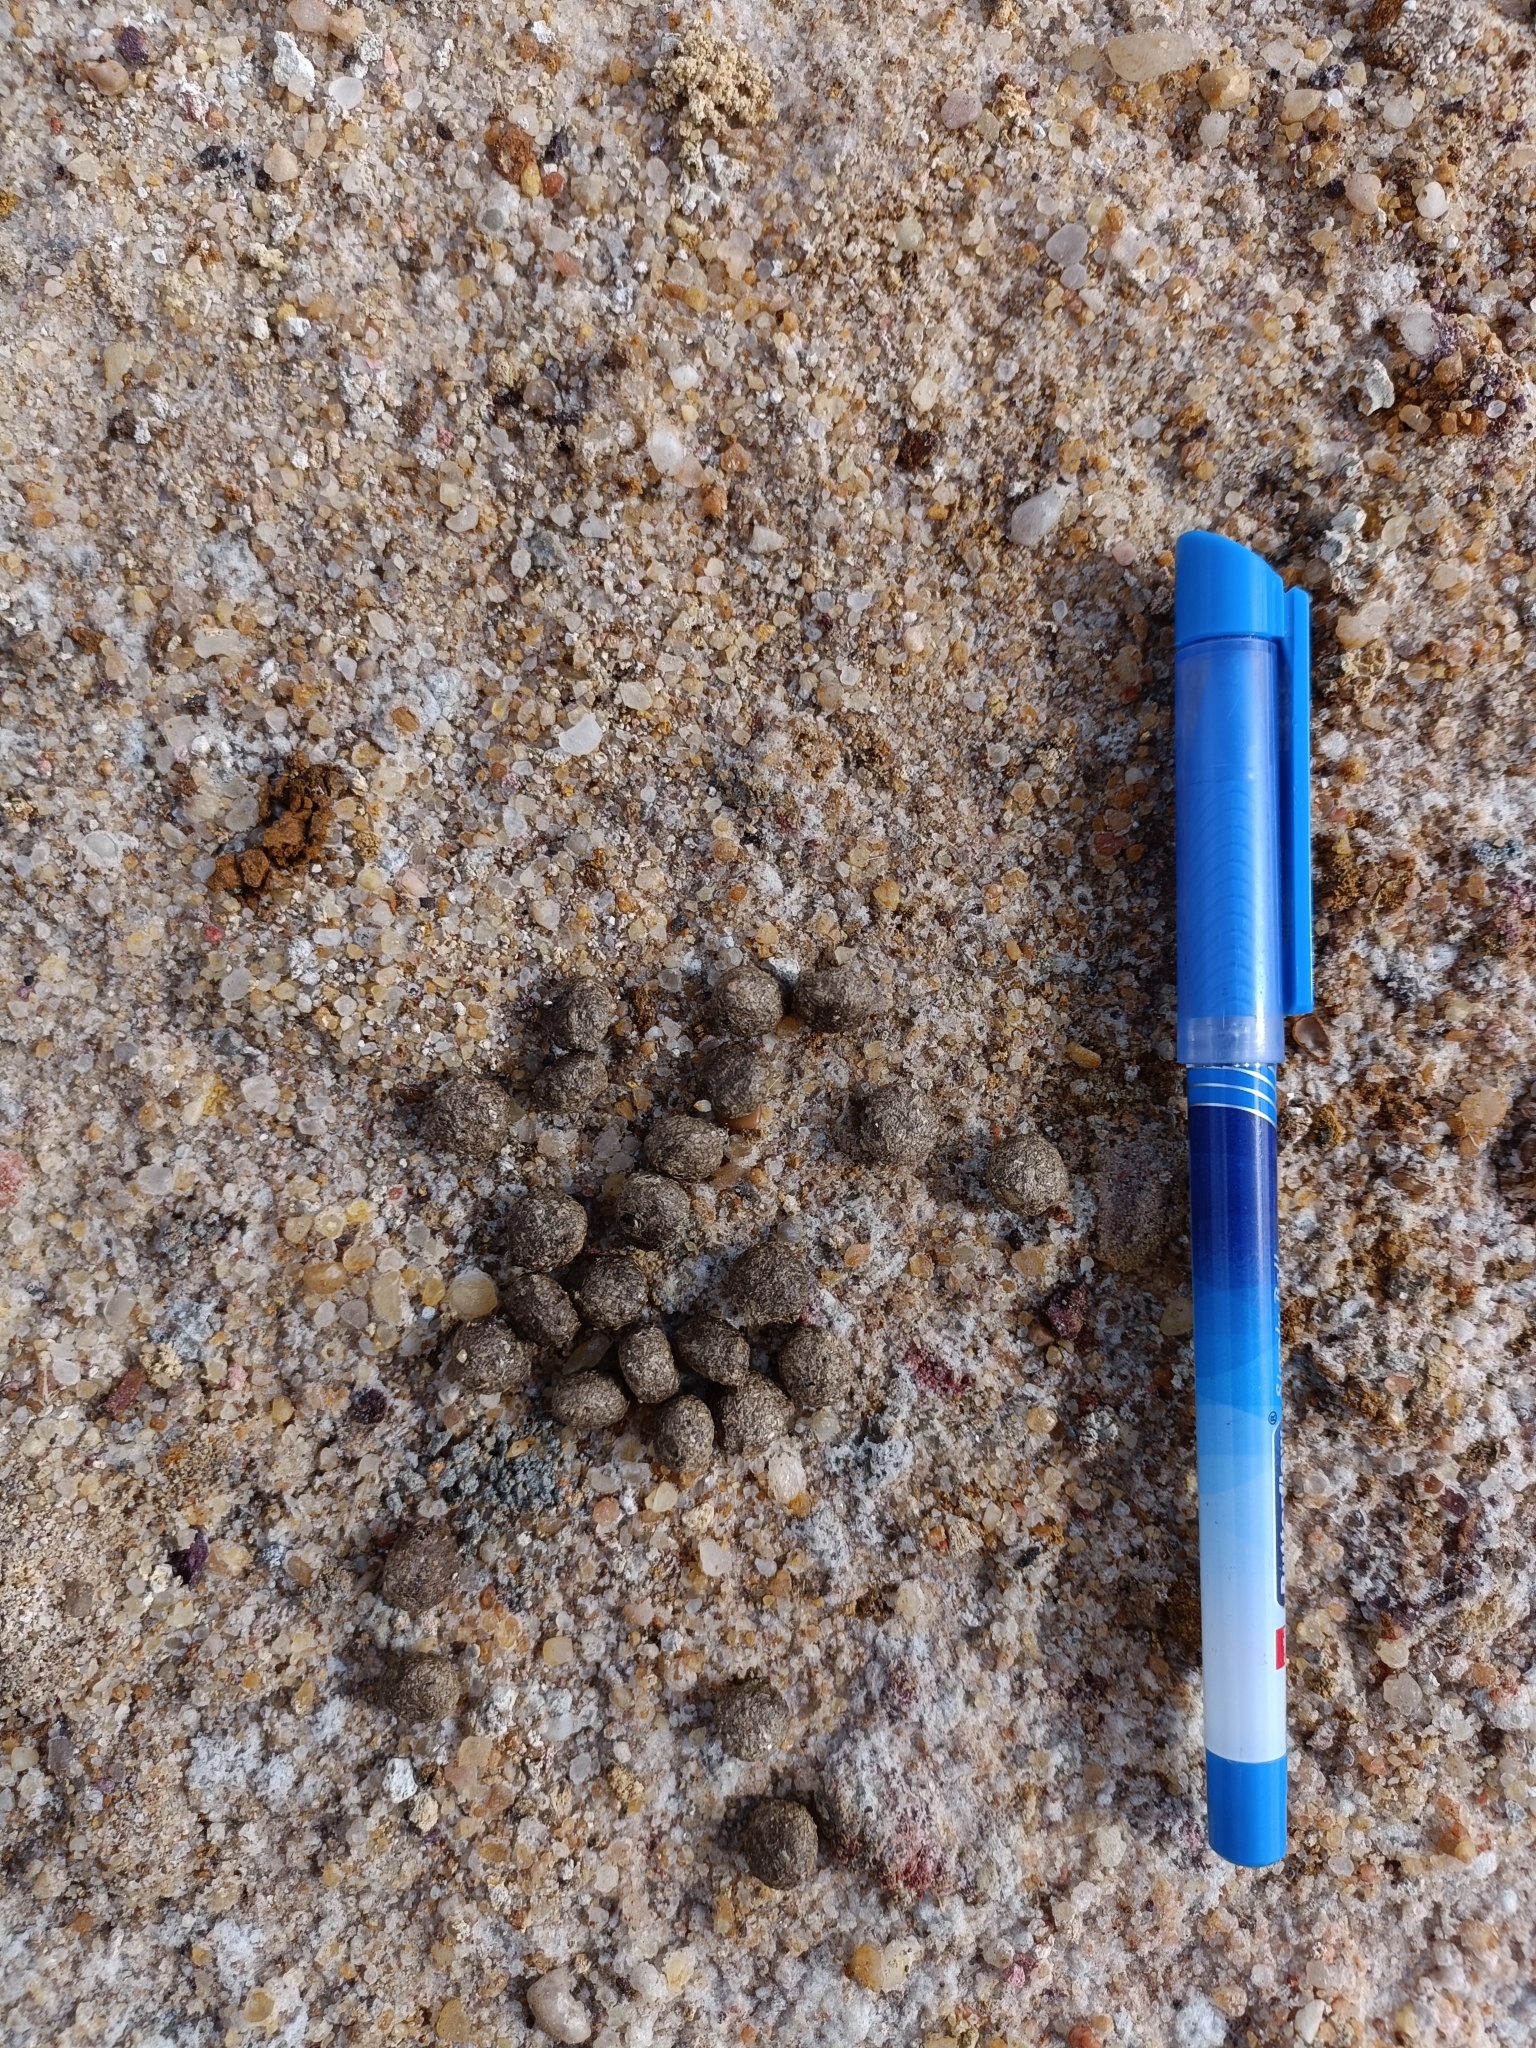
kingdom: Animalia
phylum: Chordata
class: Mammalia
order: Lagomorpha
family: Leporidae
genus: Lepus
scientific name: Lepus nigricollis
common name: Indian hare
